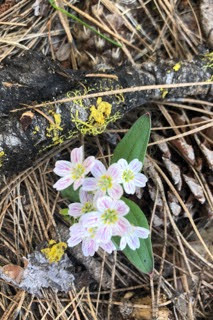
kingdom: Plantae
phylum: Tracheophyta
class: Magnoliopsida
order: Caryophyllales
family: Montiaceae
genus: Claytonia
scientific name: Claytonia lanceolata
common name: Western spring-beauty
